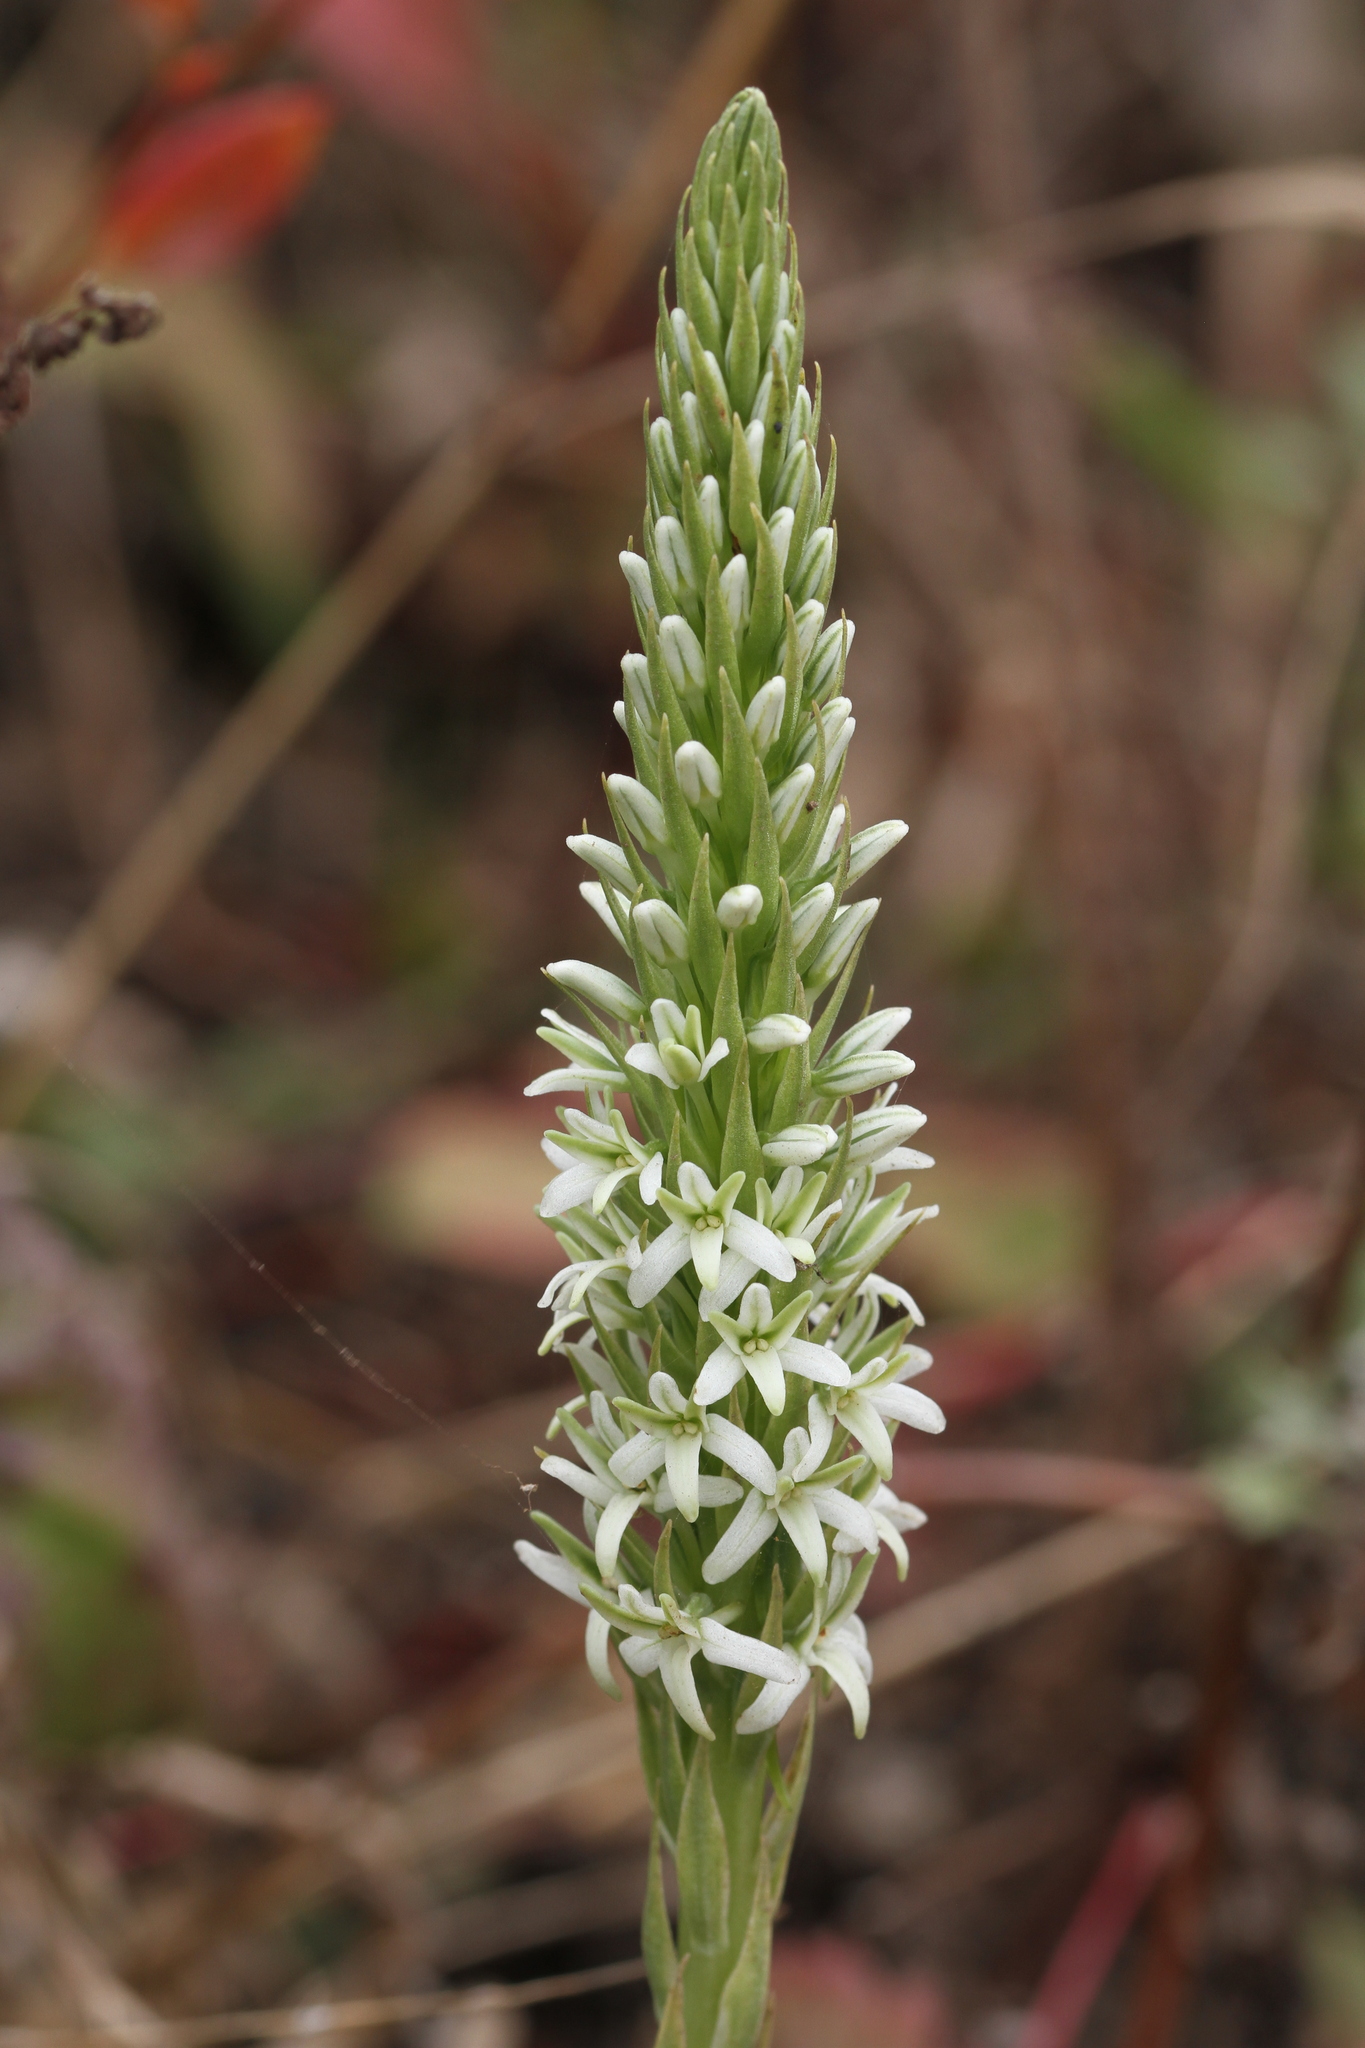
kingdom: Plantae
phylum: Tracheophyta
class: Liliopsida
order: Asparagales
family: Orchidaceae
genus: Platanthera
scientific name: Platanthera elegans
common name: Coast piperia
